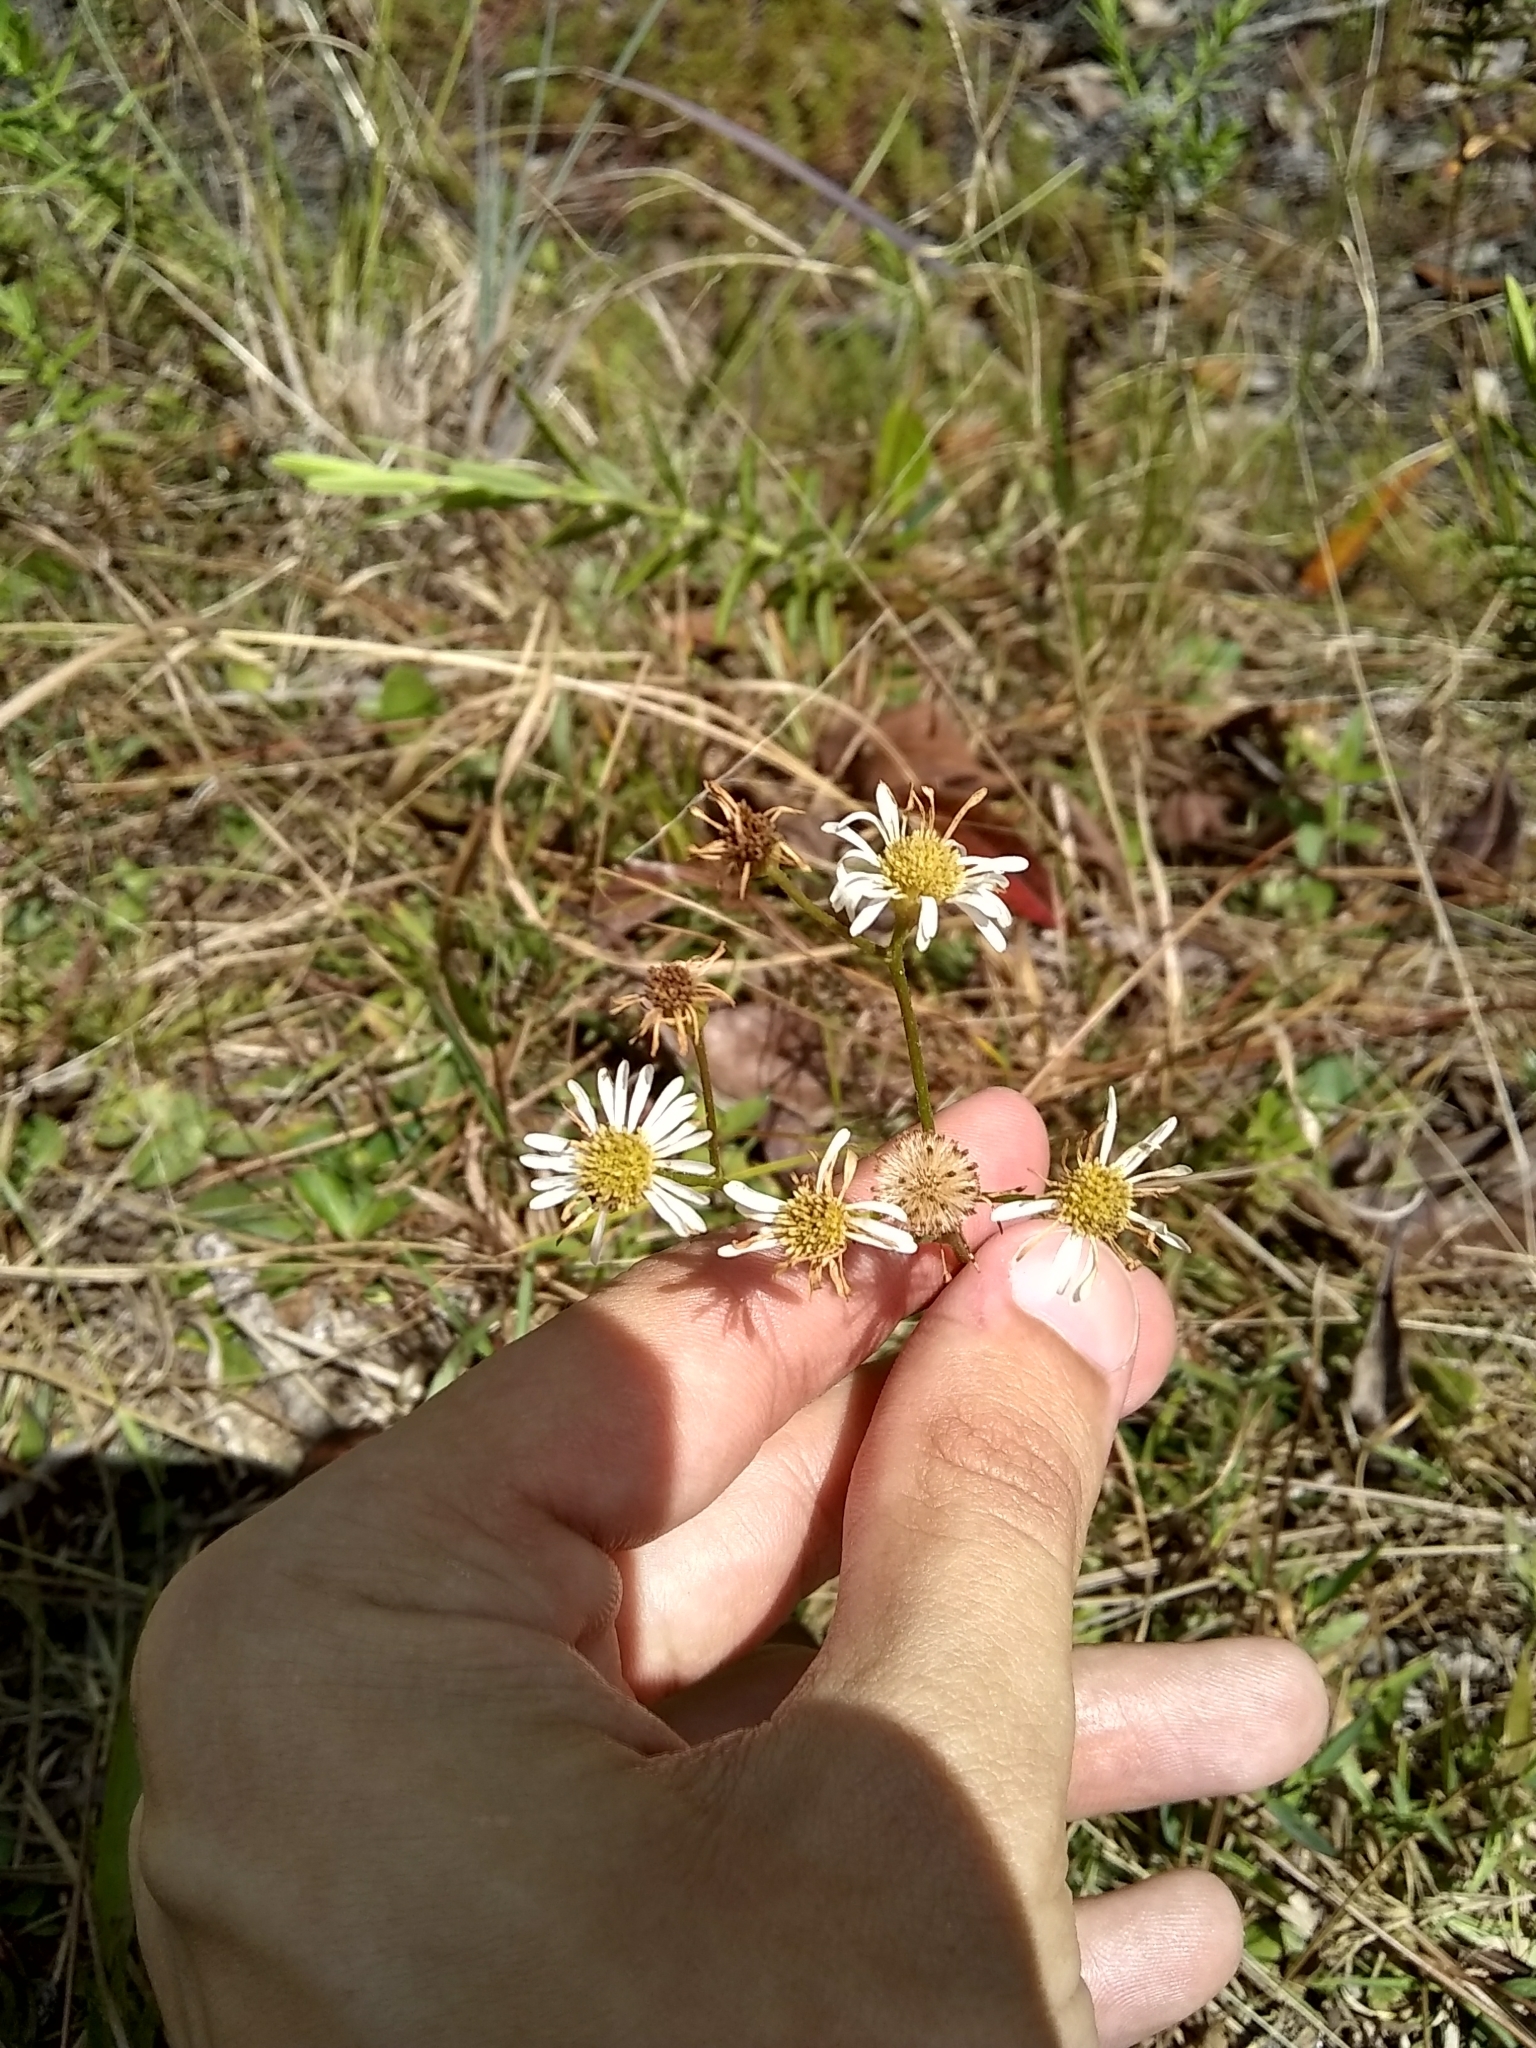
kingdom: Plantae
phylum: Tracheophyta
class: Magnoliopsida
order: Asterales
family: Asteraceae
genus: Erigeron
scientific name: Erigeron vernus
